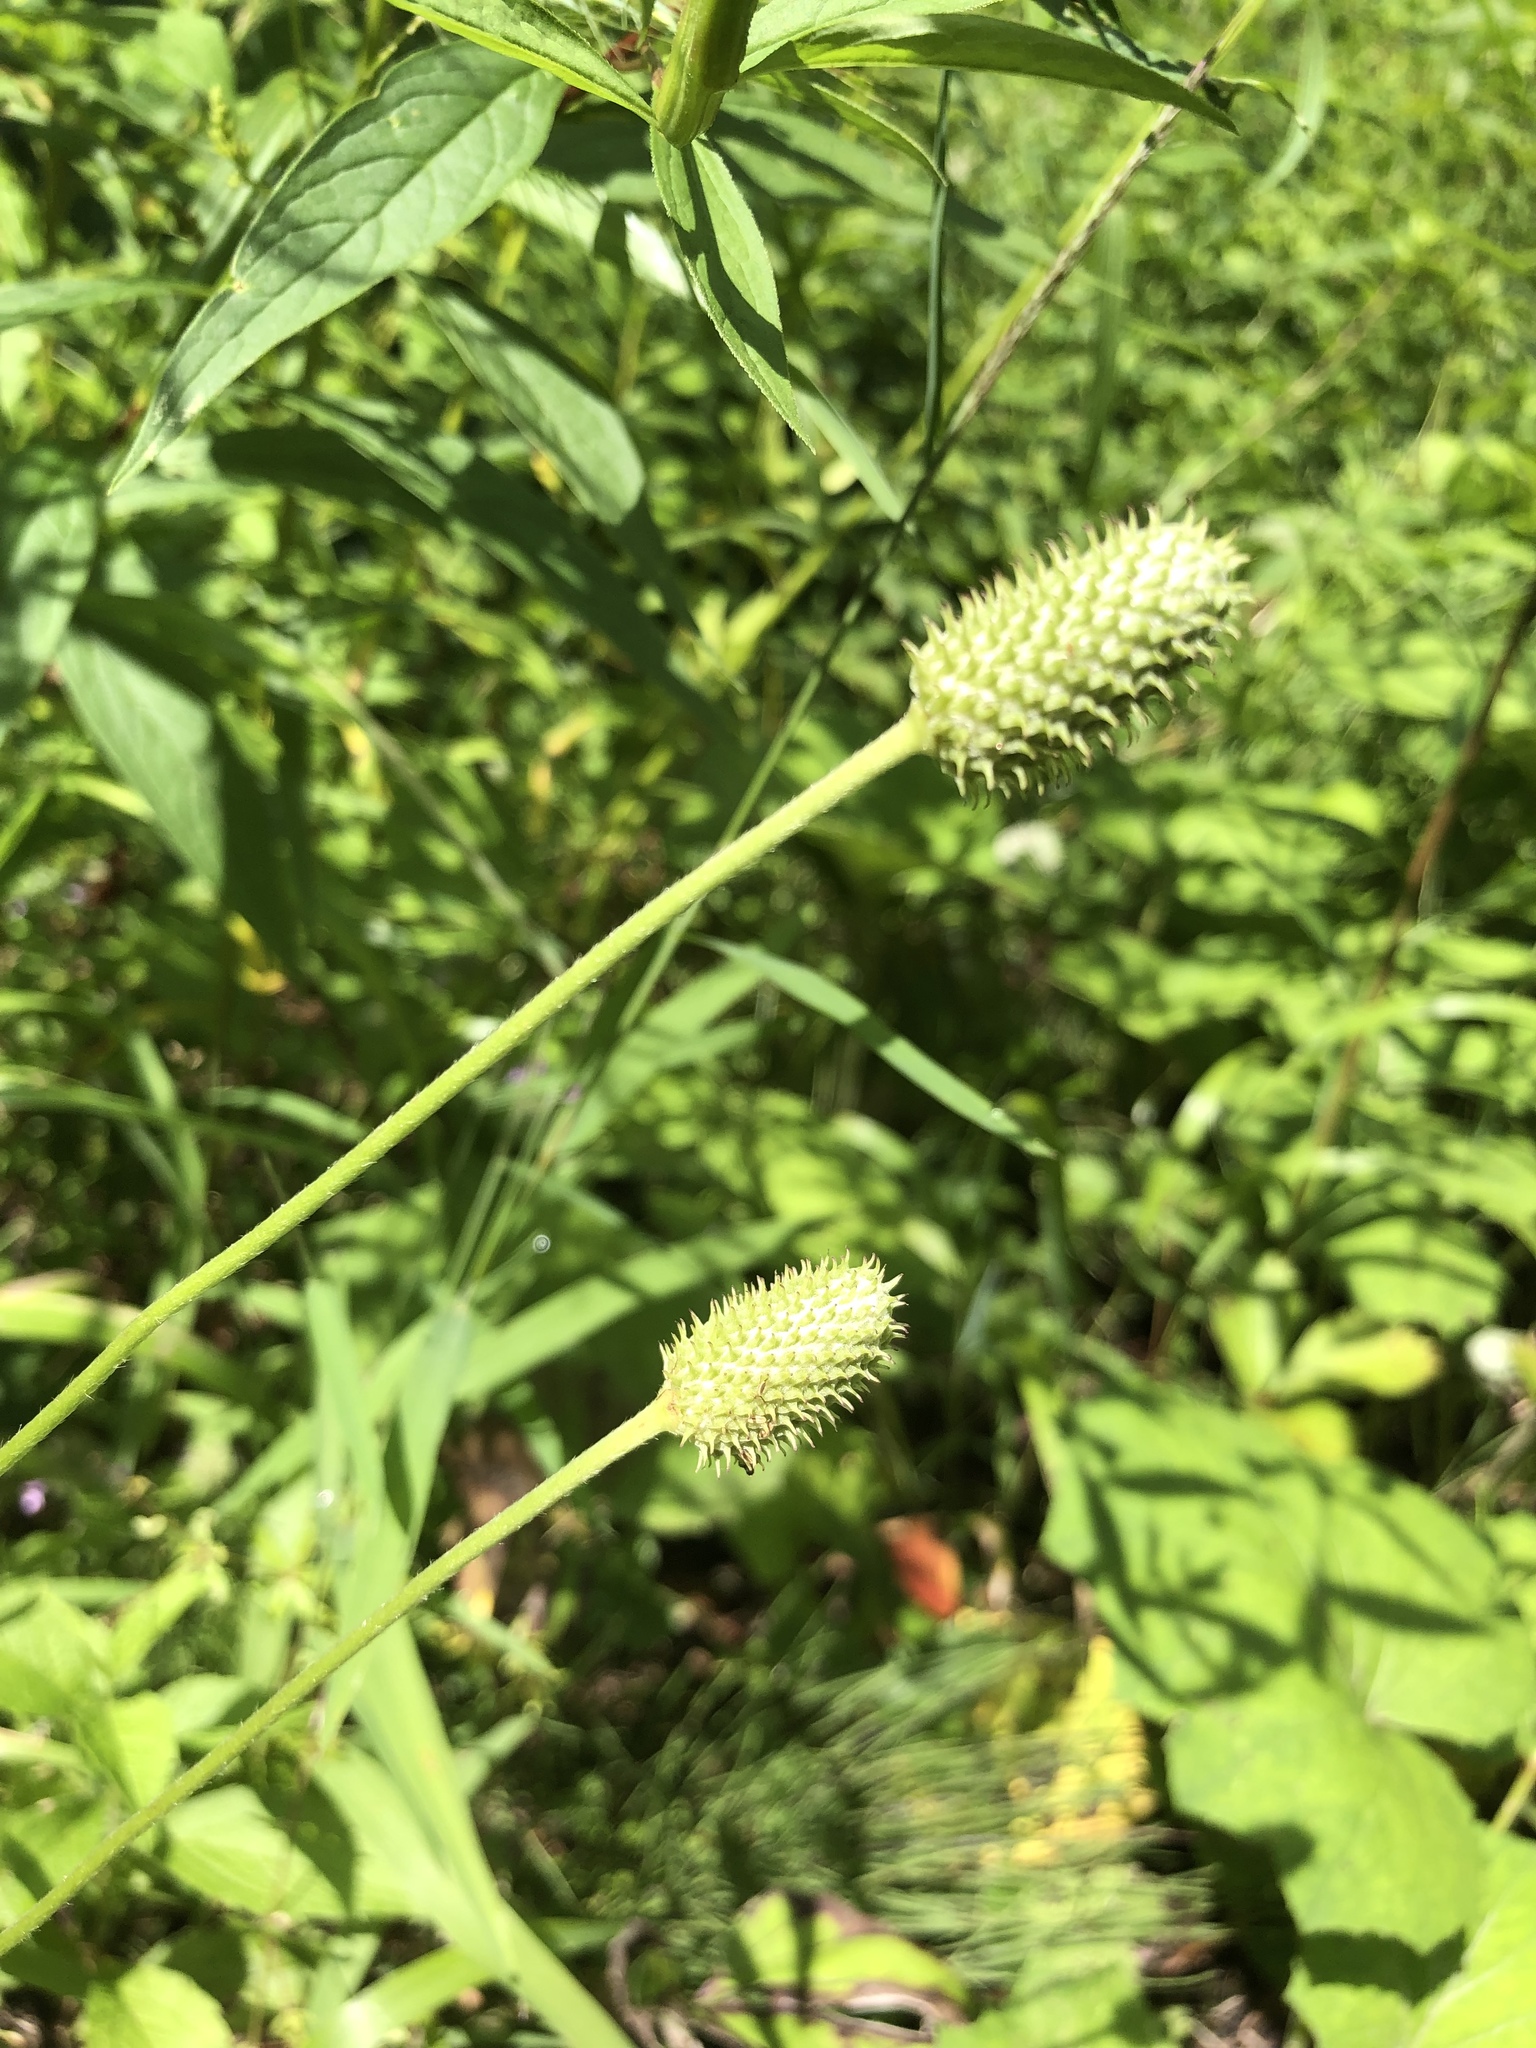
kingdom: Plantae
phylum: Tracheophyta
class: Magnoliopsida
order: Ranunculales
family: Ranunculaceae
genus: Anemone
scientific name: Anemone virginiana
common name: Tall anemone
